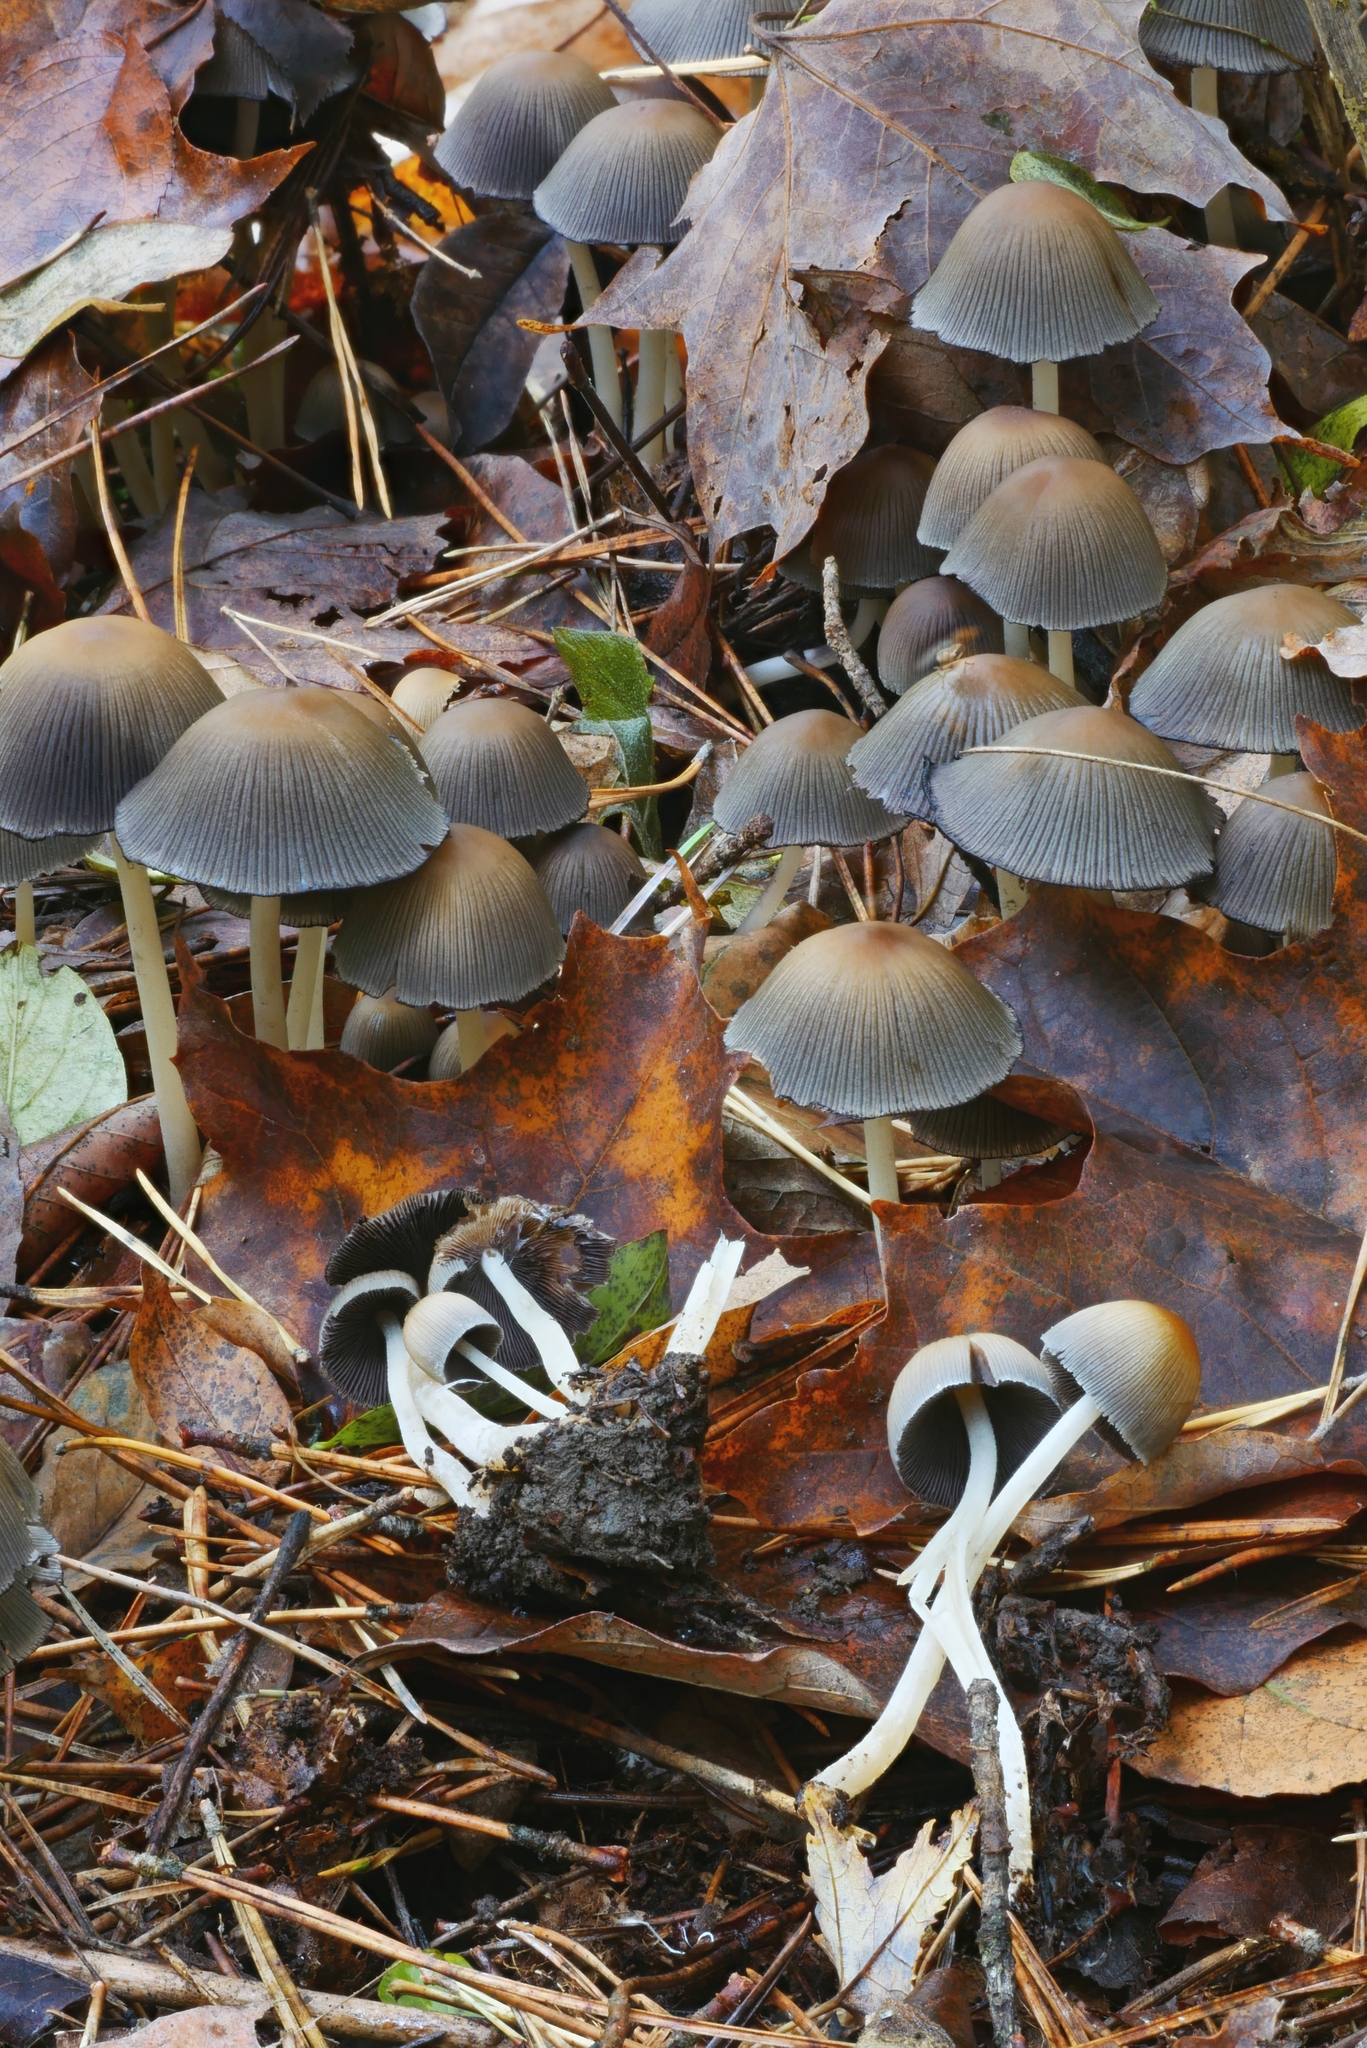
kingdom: Fungi
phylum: Basidiomycota
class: Agaricomycetes
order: Agaricales
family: Psathyrellaceae
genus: Coprinellus
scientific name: Coprinellus micaceus
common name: Glistening ink-cap
